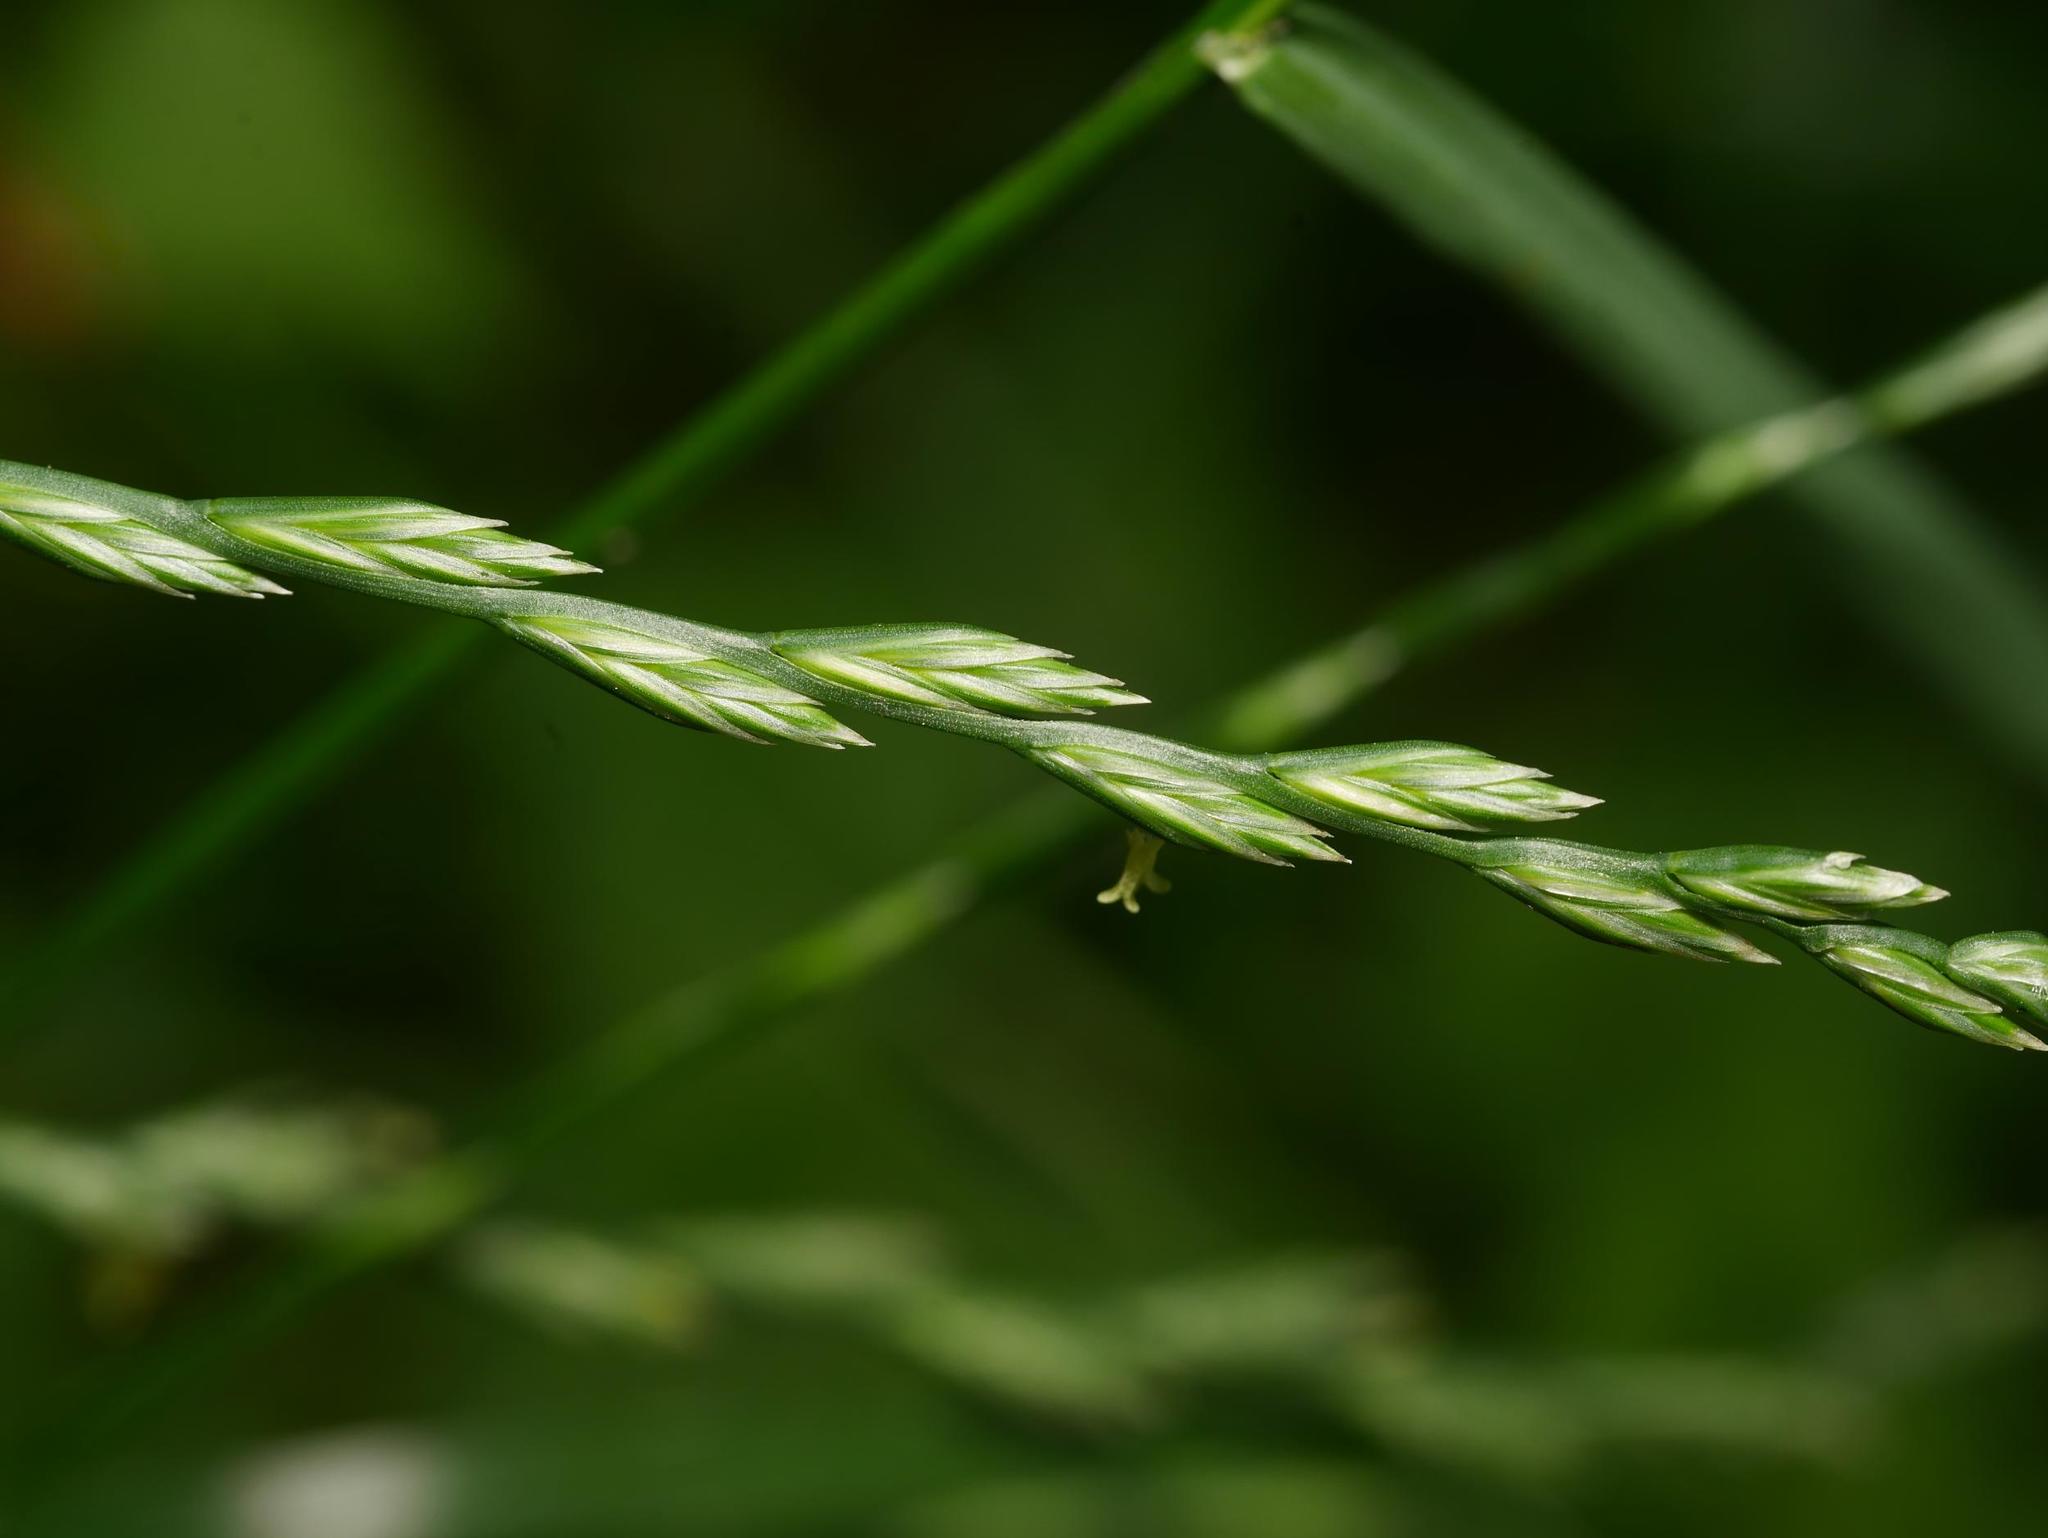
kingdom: Plantae
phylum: Tracheophyta
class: Liliopsida
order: Poales
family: Poaceae
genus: Lolium
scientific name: Lolium perenne
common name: Perennial ryegrass
